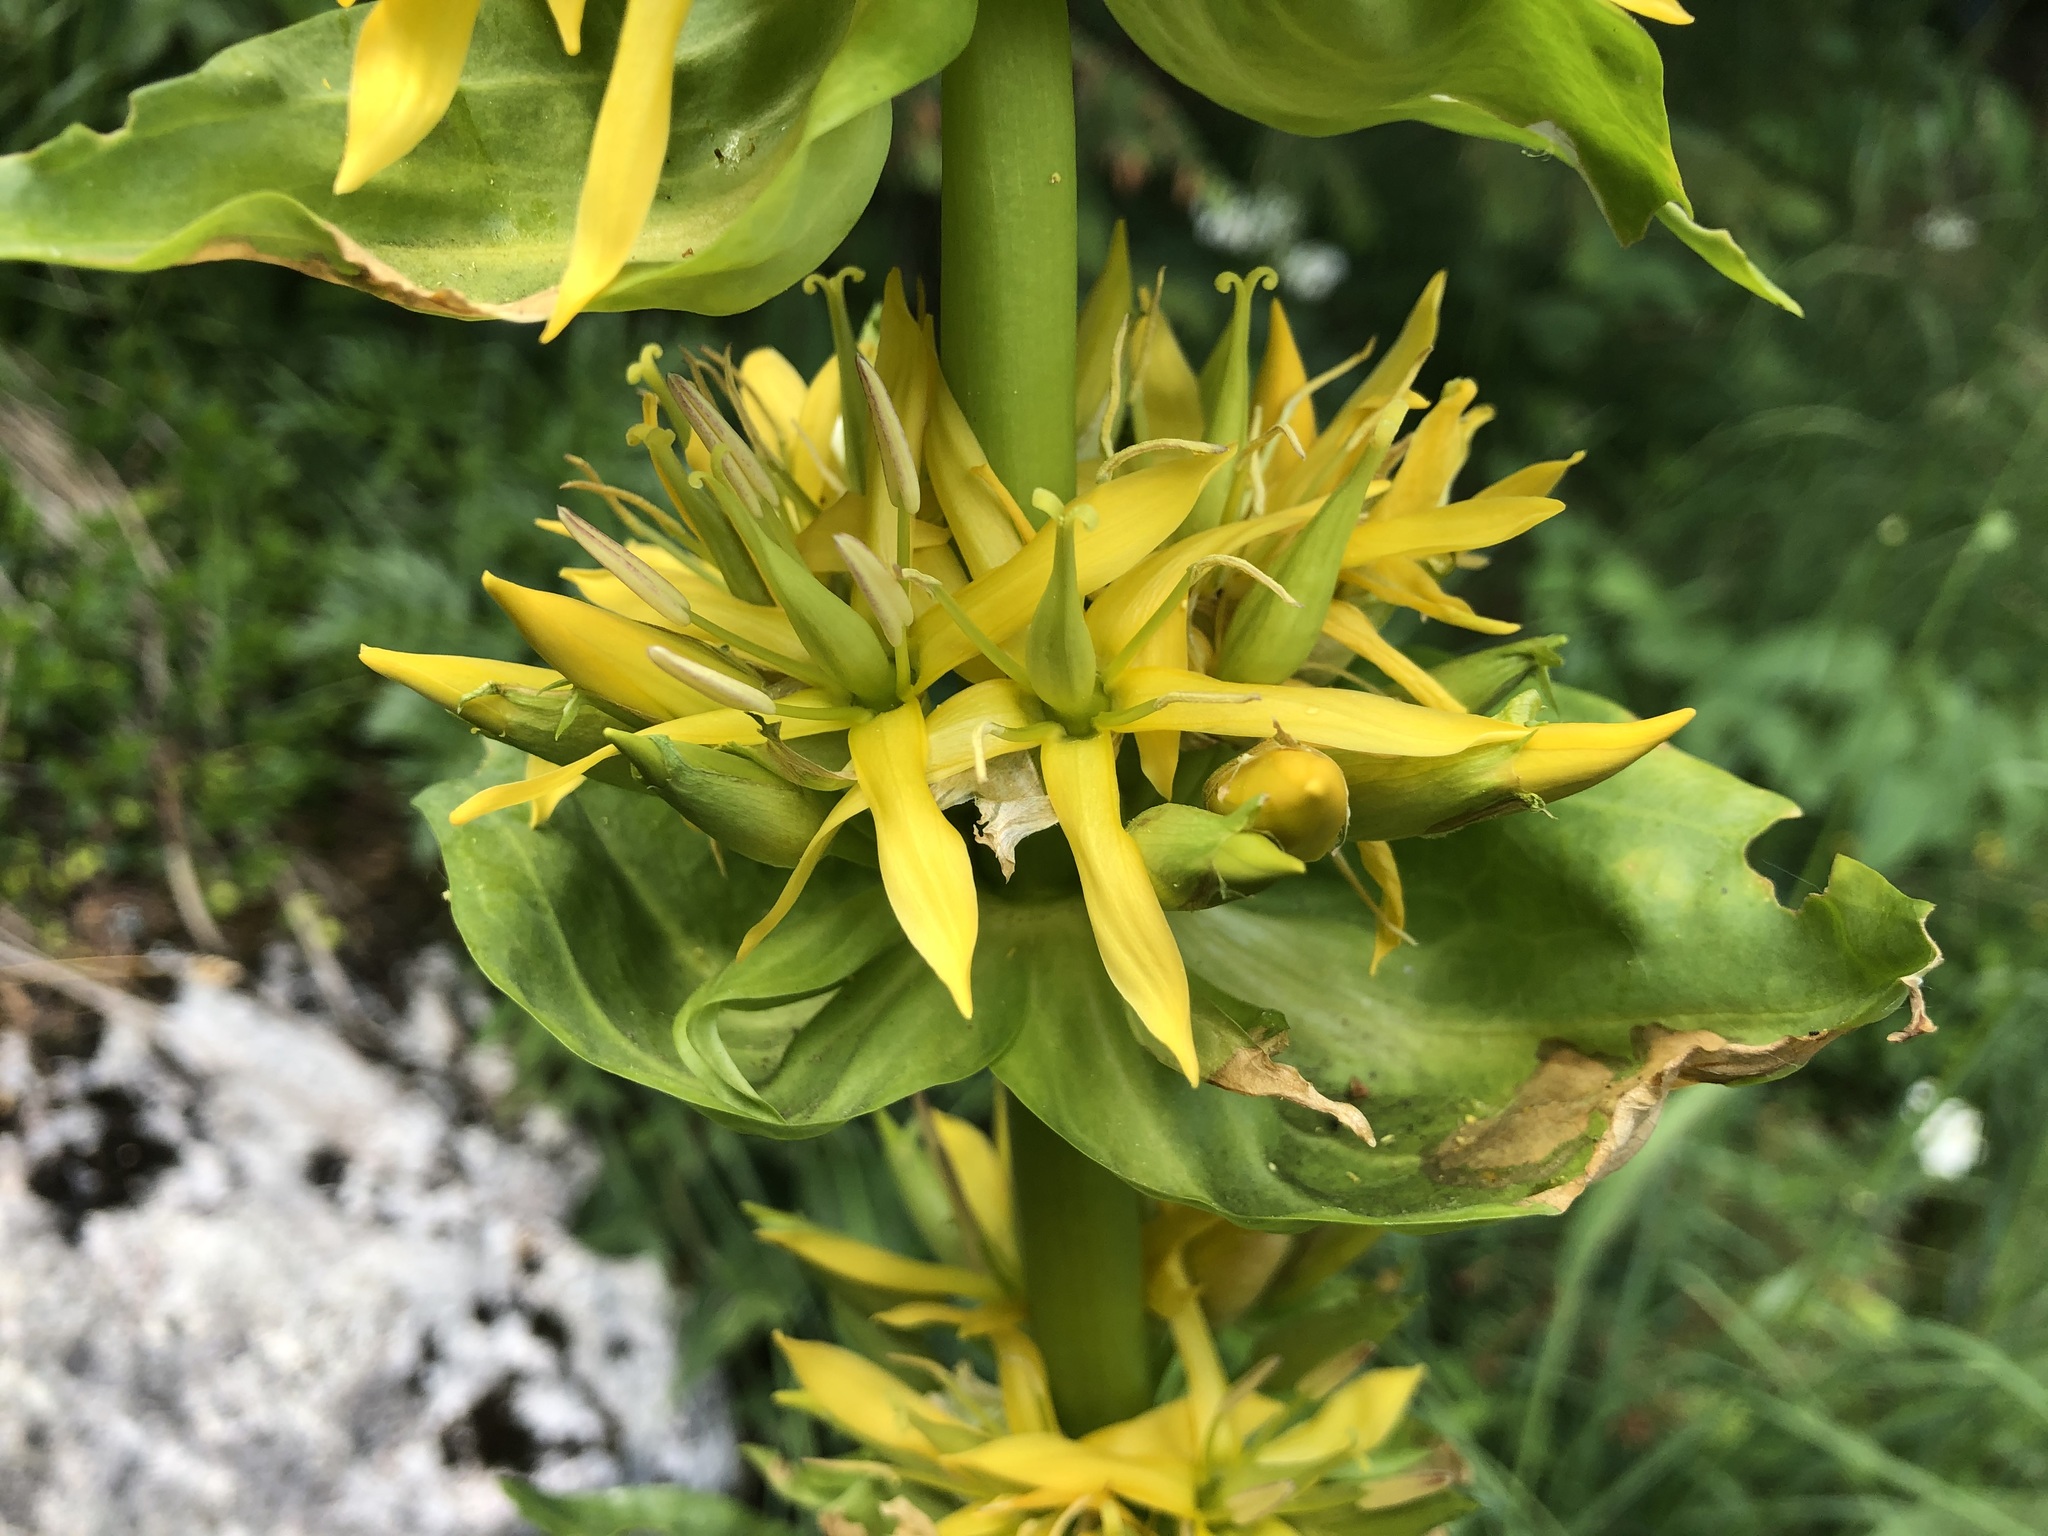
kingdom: Plantae
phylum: Tracheophyta
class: Magnoliopsida
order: Gentianales
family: Gentianaceae
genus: Gentiana
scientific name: Gentiana lutea
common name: Great yellow gentian
